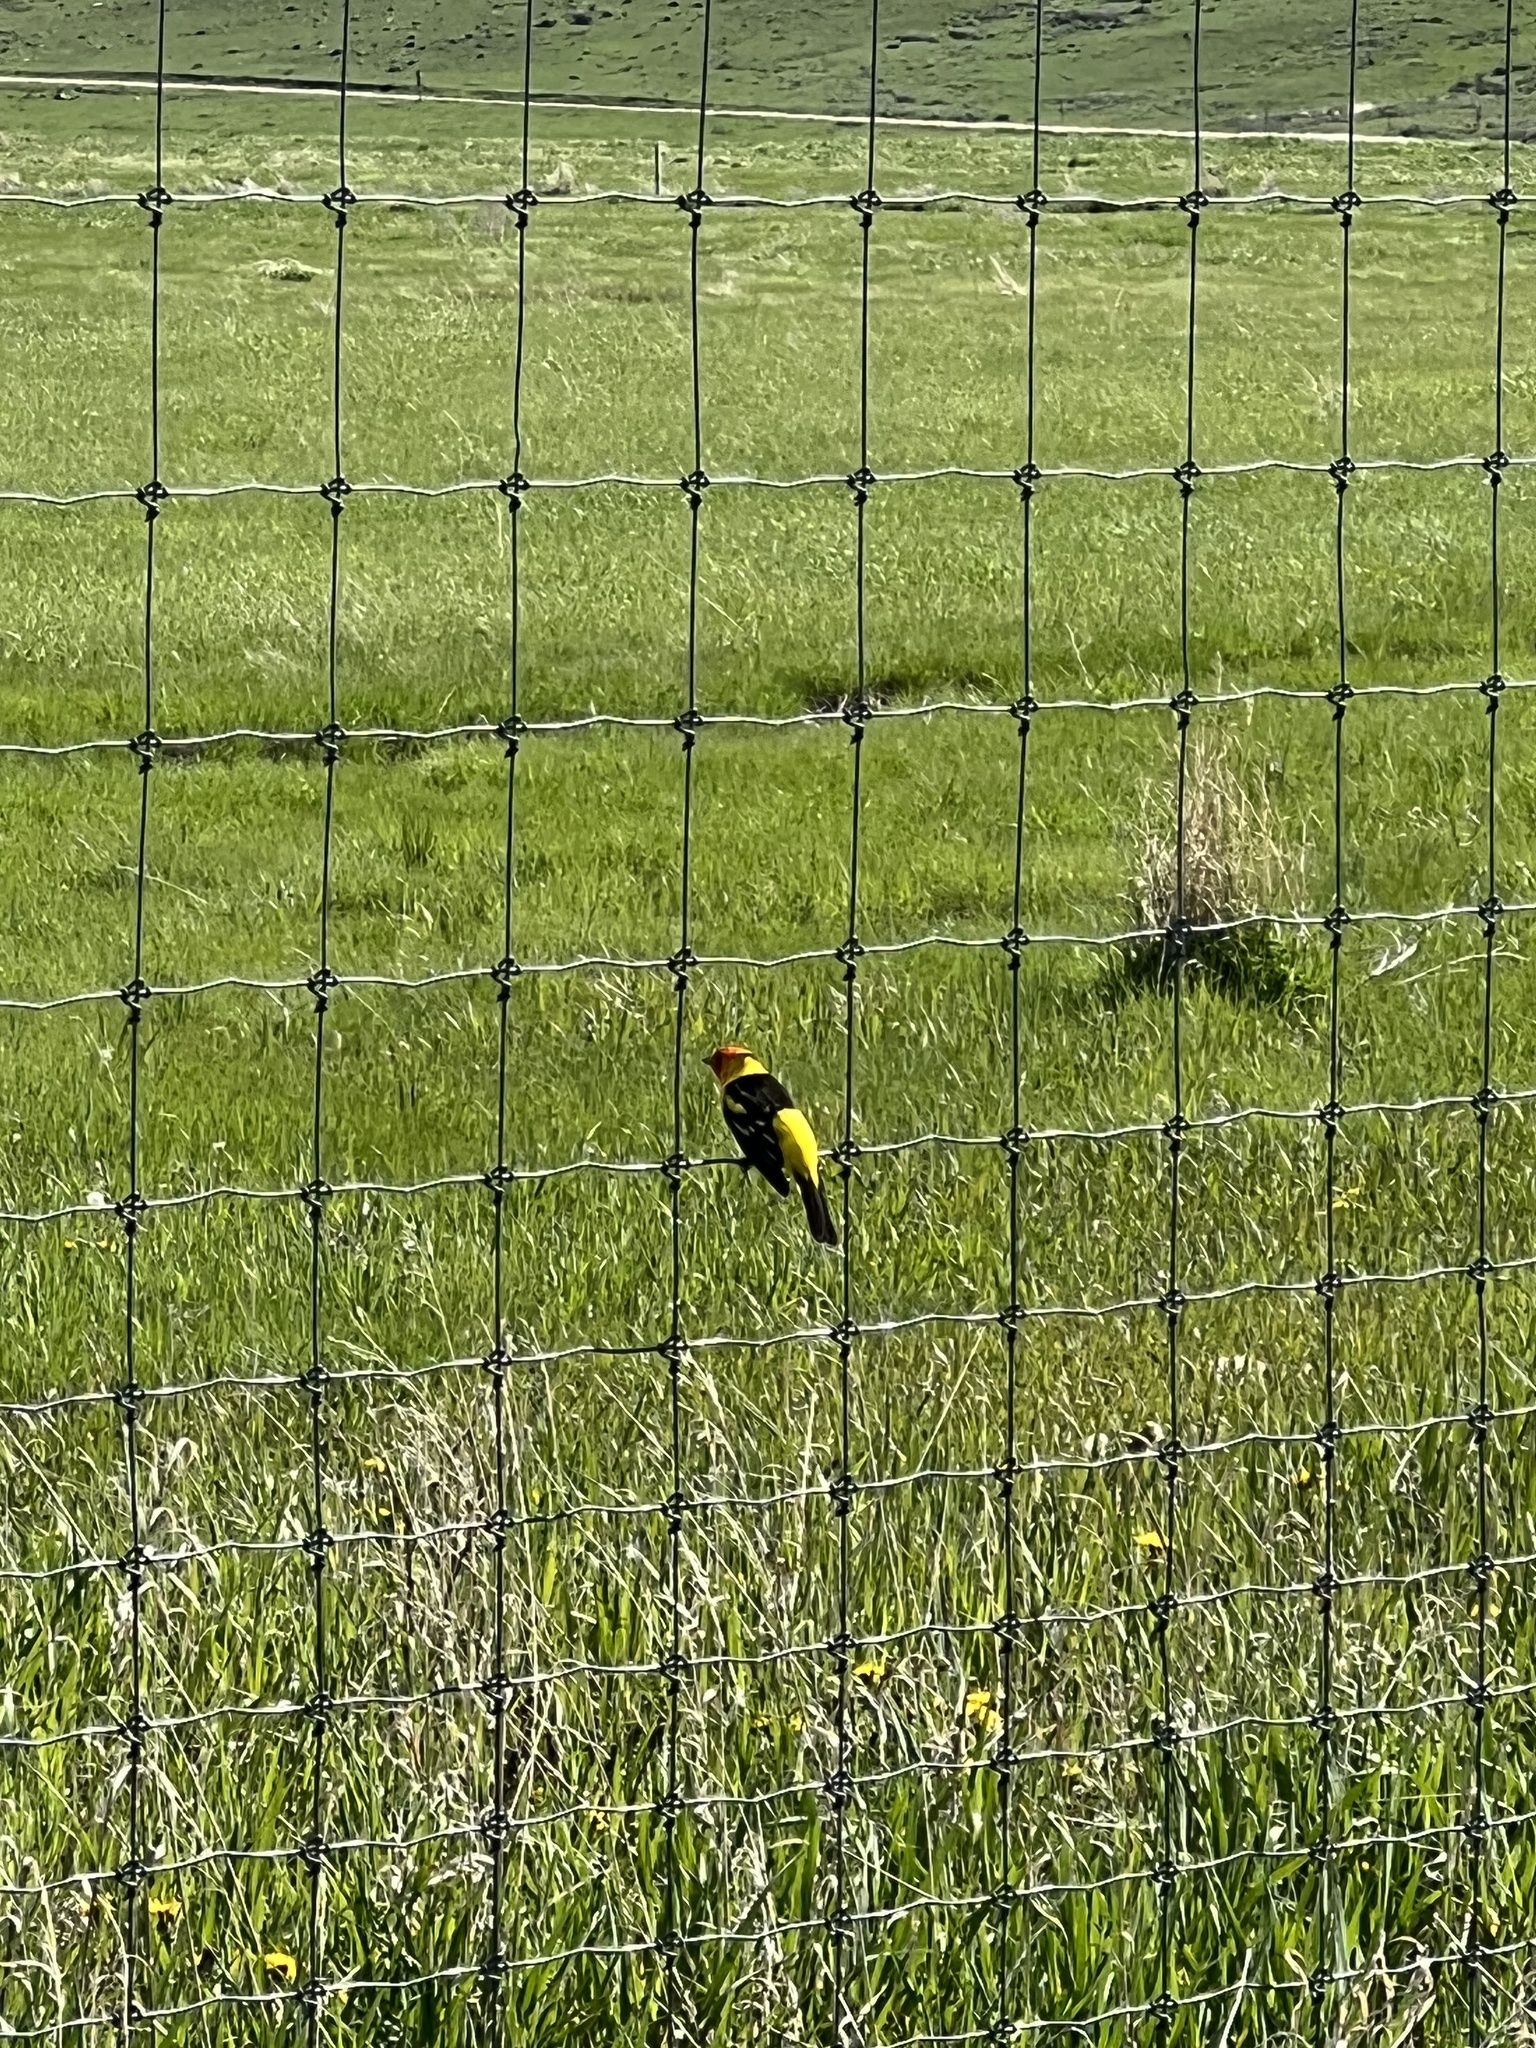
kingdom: Animalia
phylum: Chordata
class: Aves
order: Passeriformes
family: Cardinalidae
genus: Piranga
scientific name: Piranga ludoviciana
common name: Western tanager
